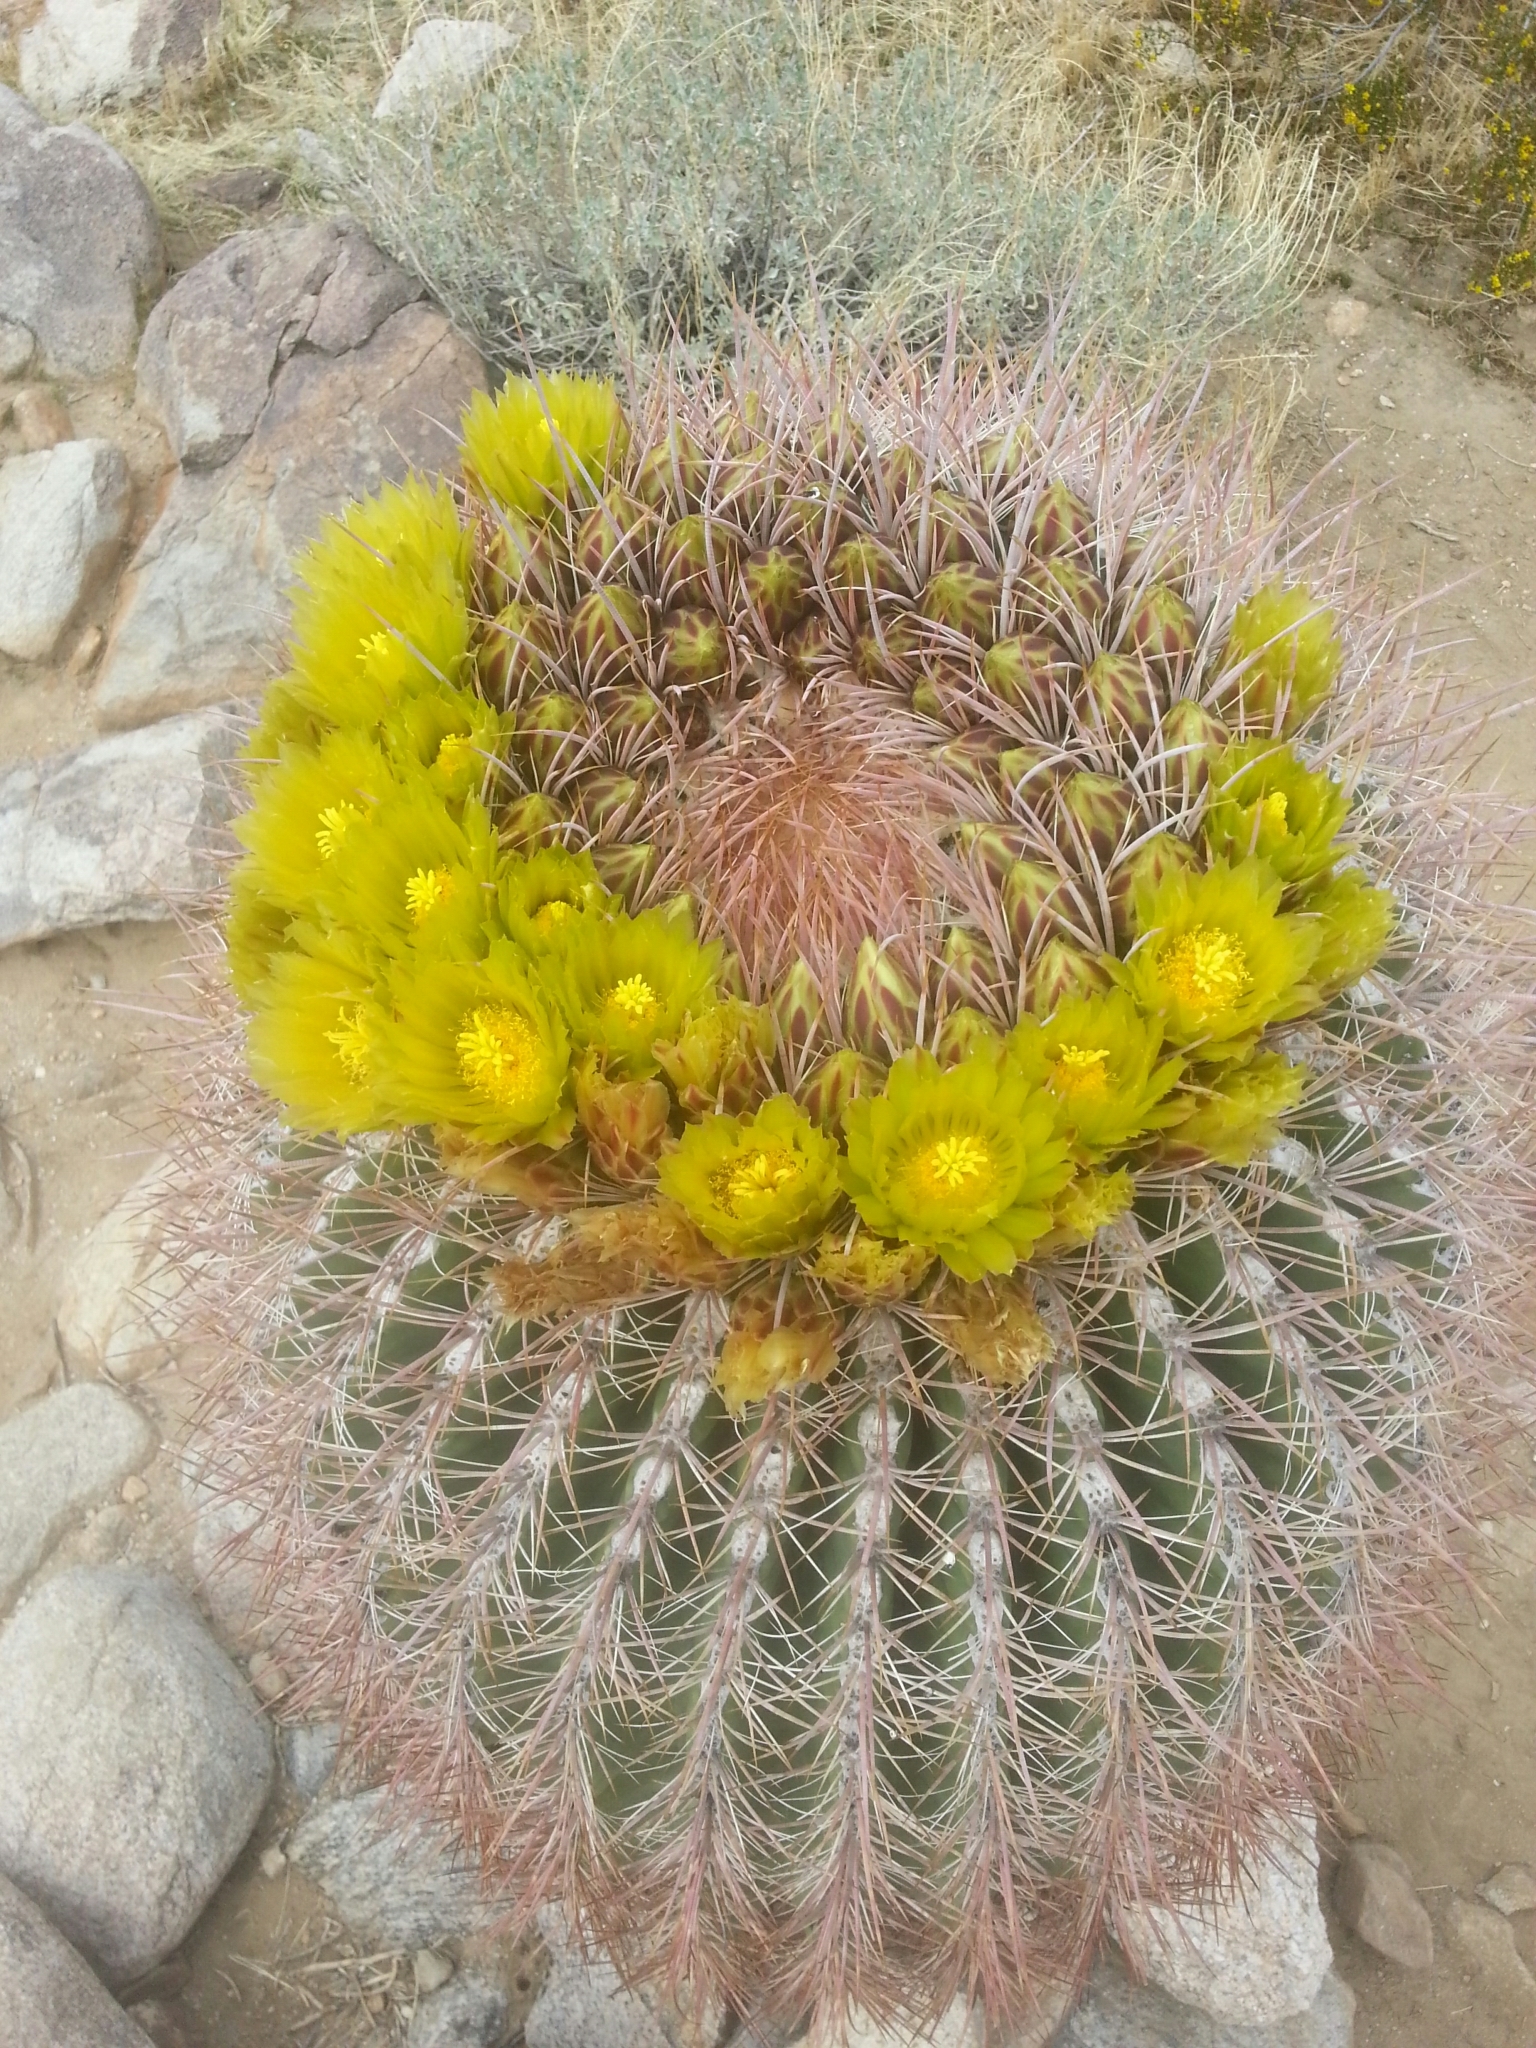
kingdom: Plantae
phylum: Tracheophyta
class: Magnoliopsida
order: Caryophyllales
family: Cactaceae
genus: Ferocactus
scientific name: Ferocactus cylindraceus
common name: California barrel cactus
